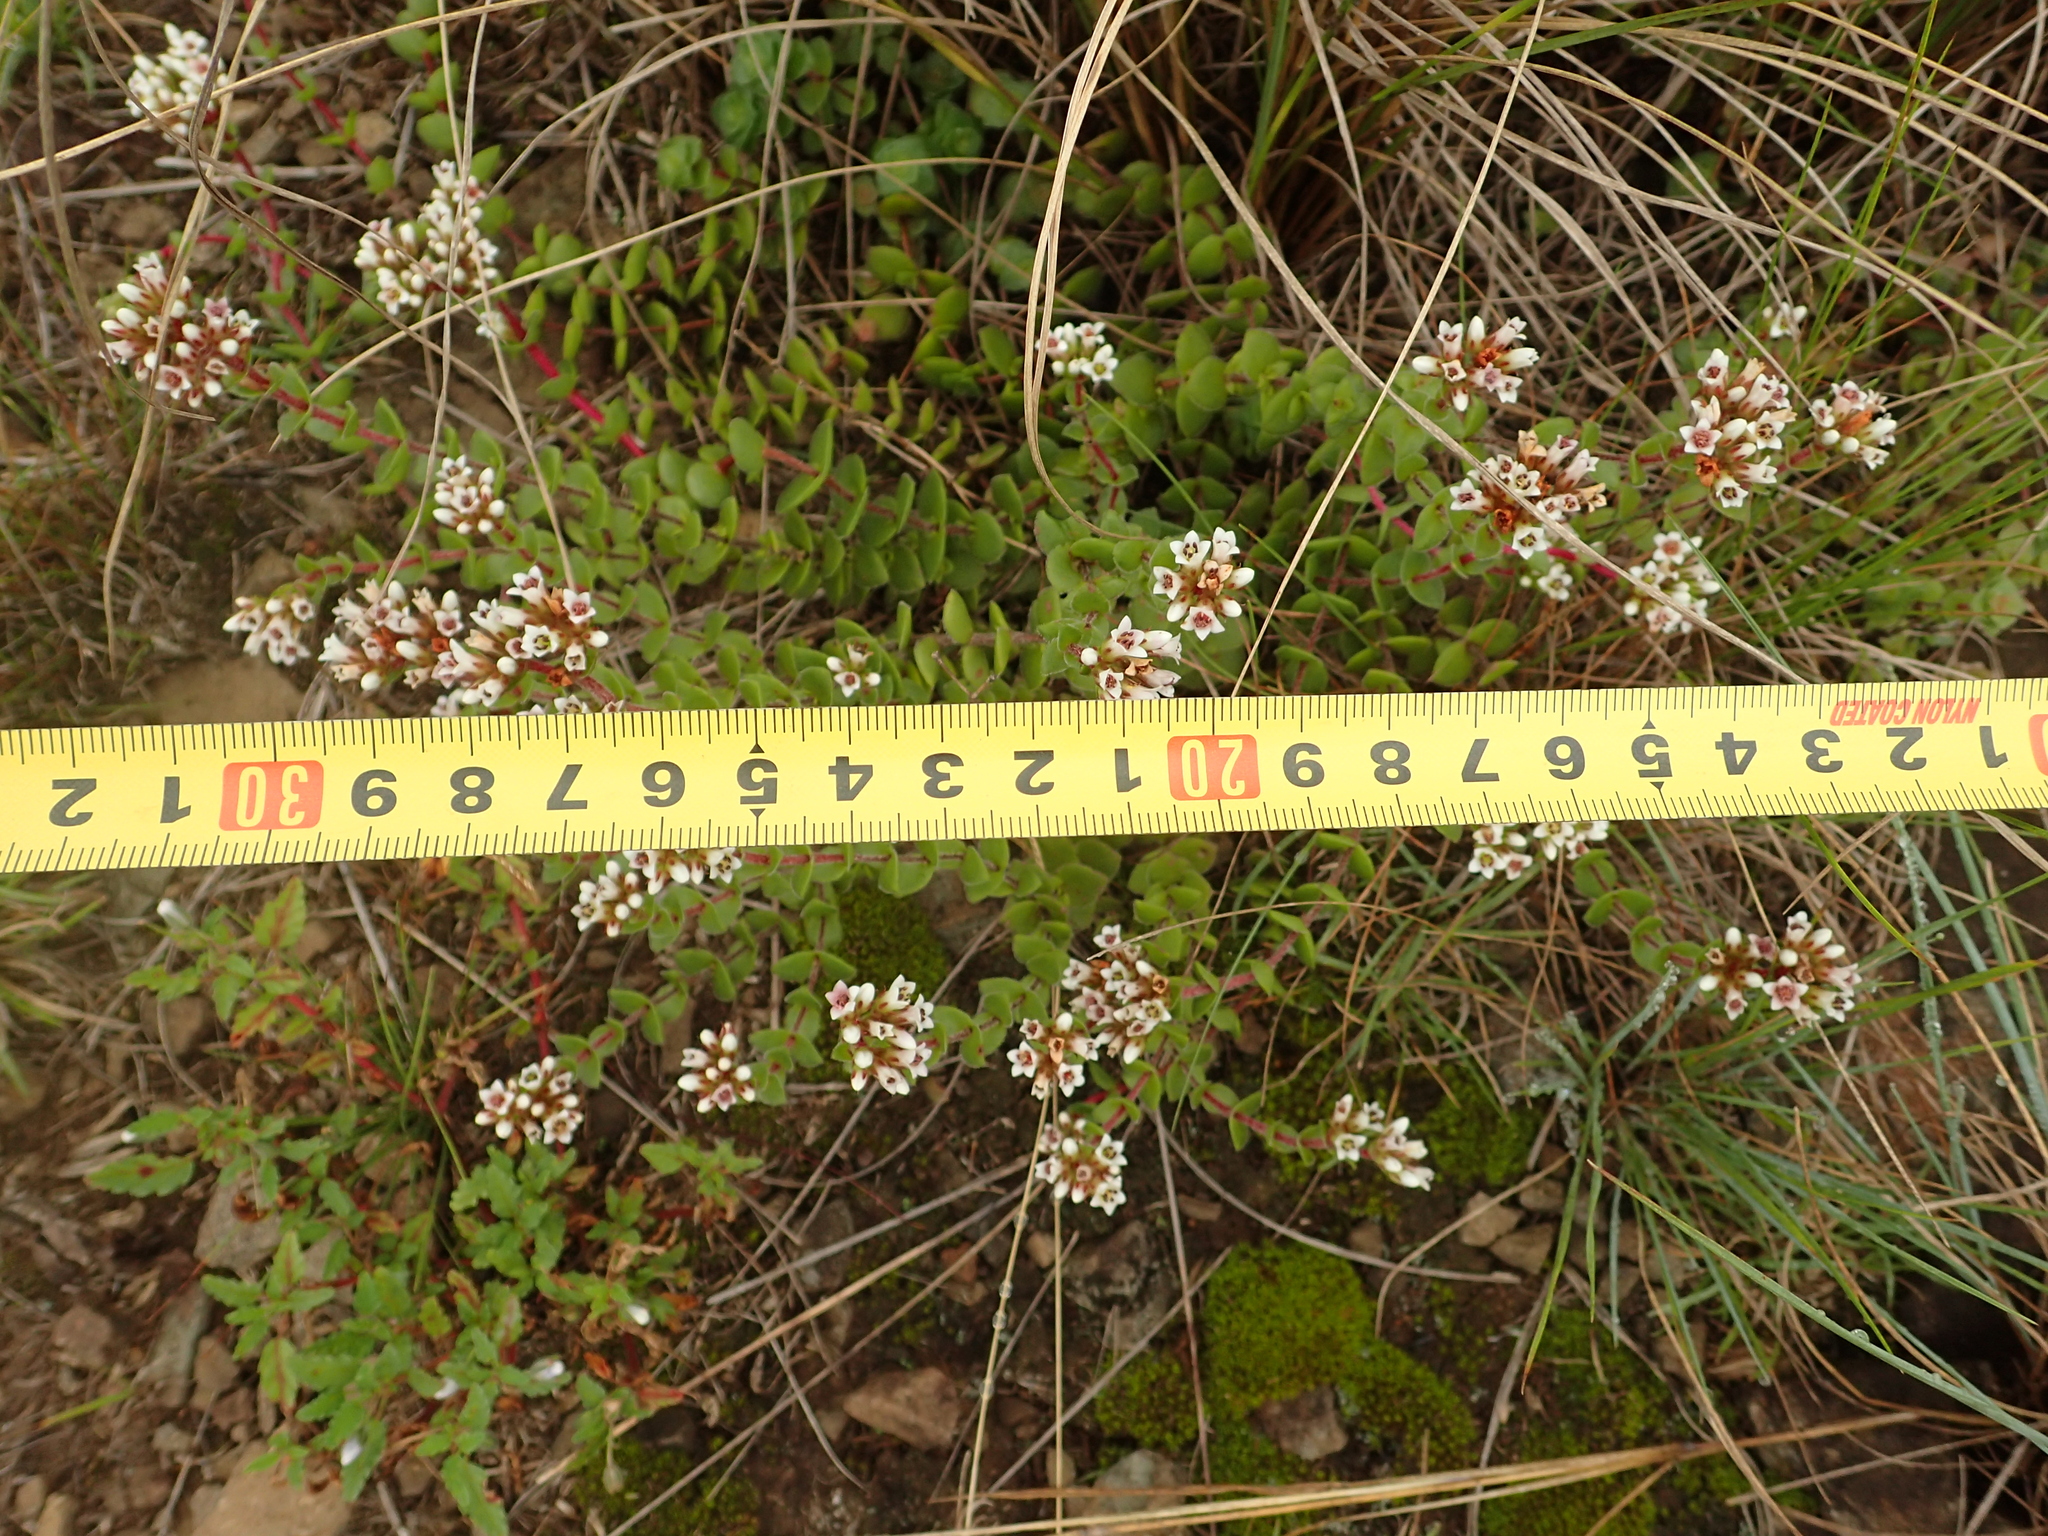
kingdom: Plantae
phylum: Tracheophyta
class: Magnoliopsida
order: Saxifragales
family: Crassulaceae
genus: Crassula
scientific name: Crassula obovata
